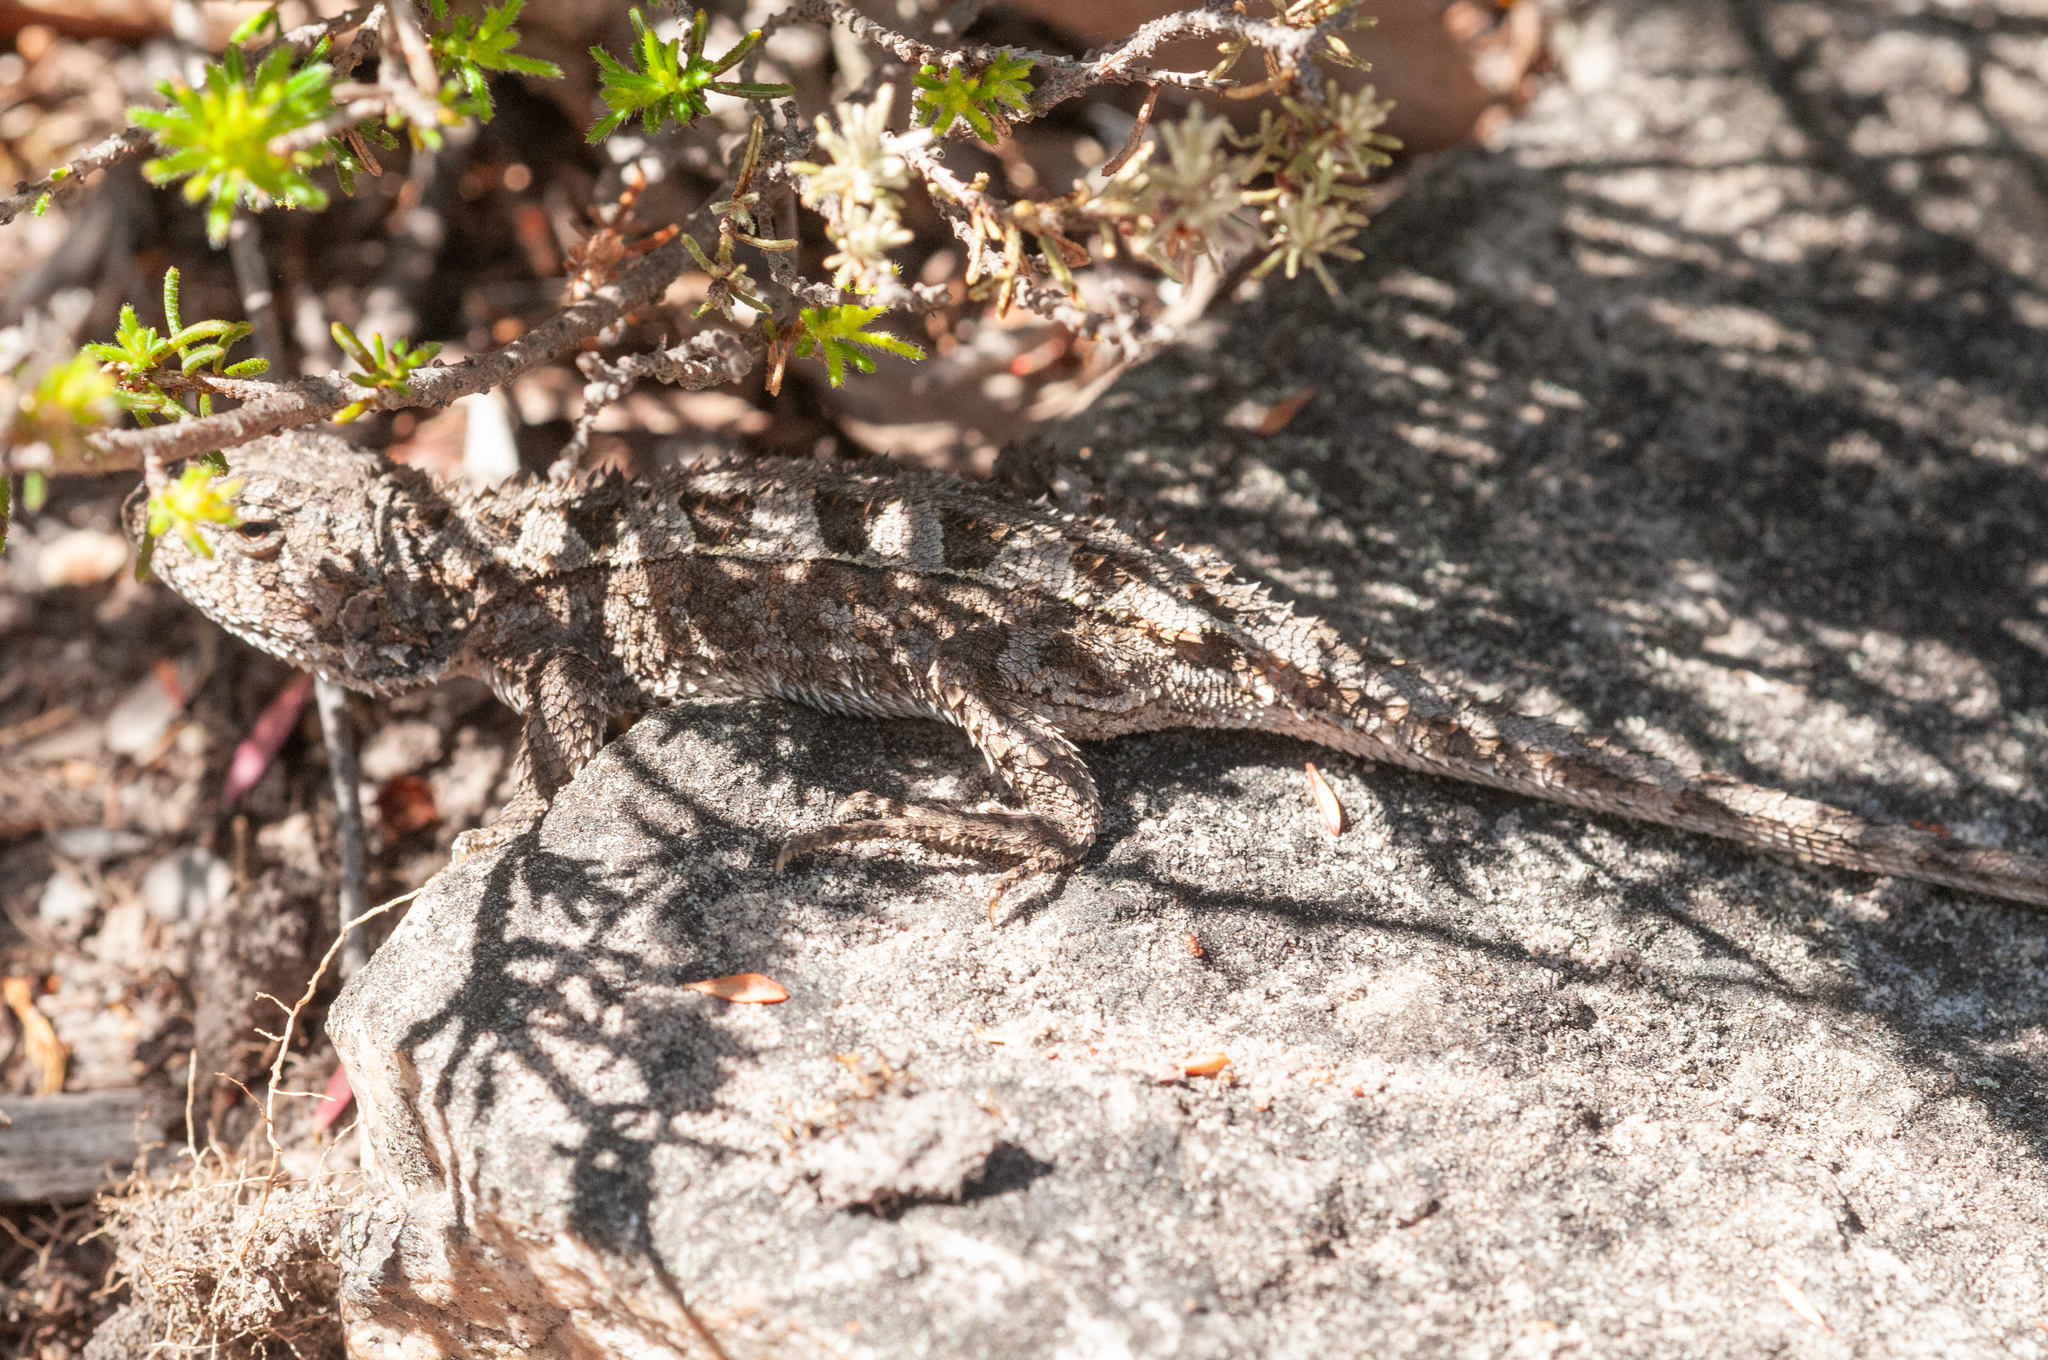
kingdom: Animalia
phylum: Chordata
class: Squamata
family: Agamidae
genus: Rankinia
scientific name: Rankinia diemensis
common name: Mountain dragon
